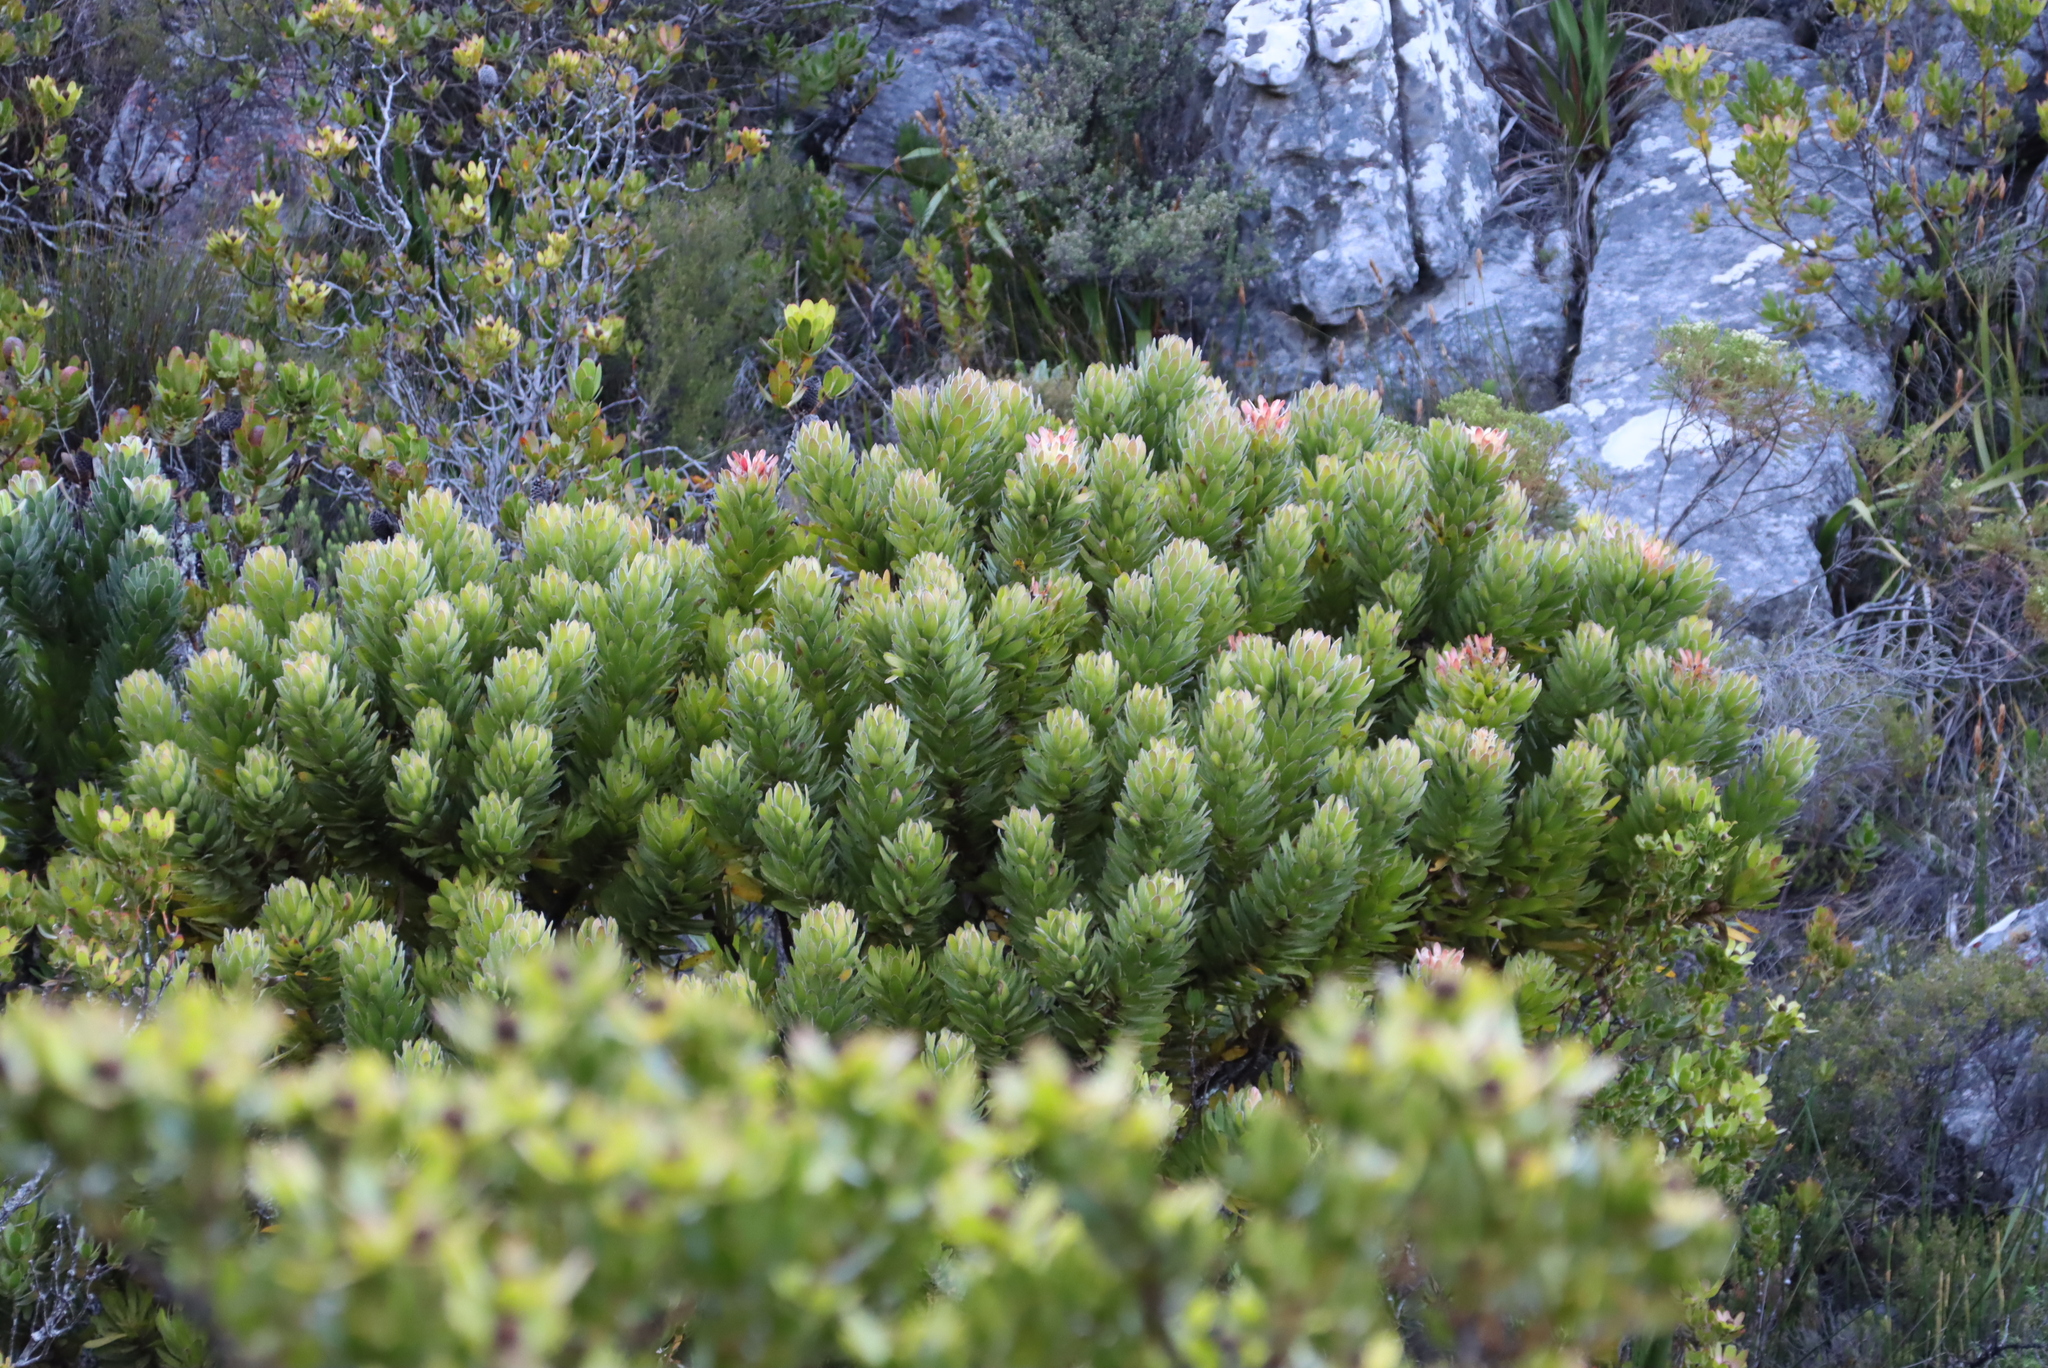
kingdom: Plantae
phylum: Tracheophyta
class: Magnoliopsida
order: Proteales
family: Proteaceae
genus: Mimetes
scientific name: Mimetes fimbriifolius
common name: Fringed bottlebrush
